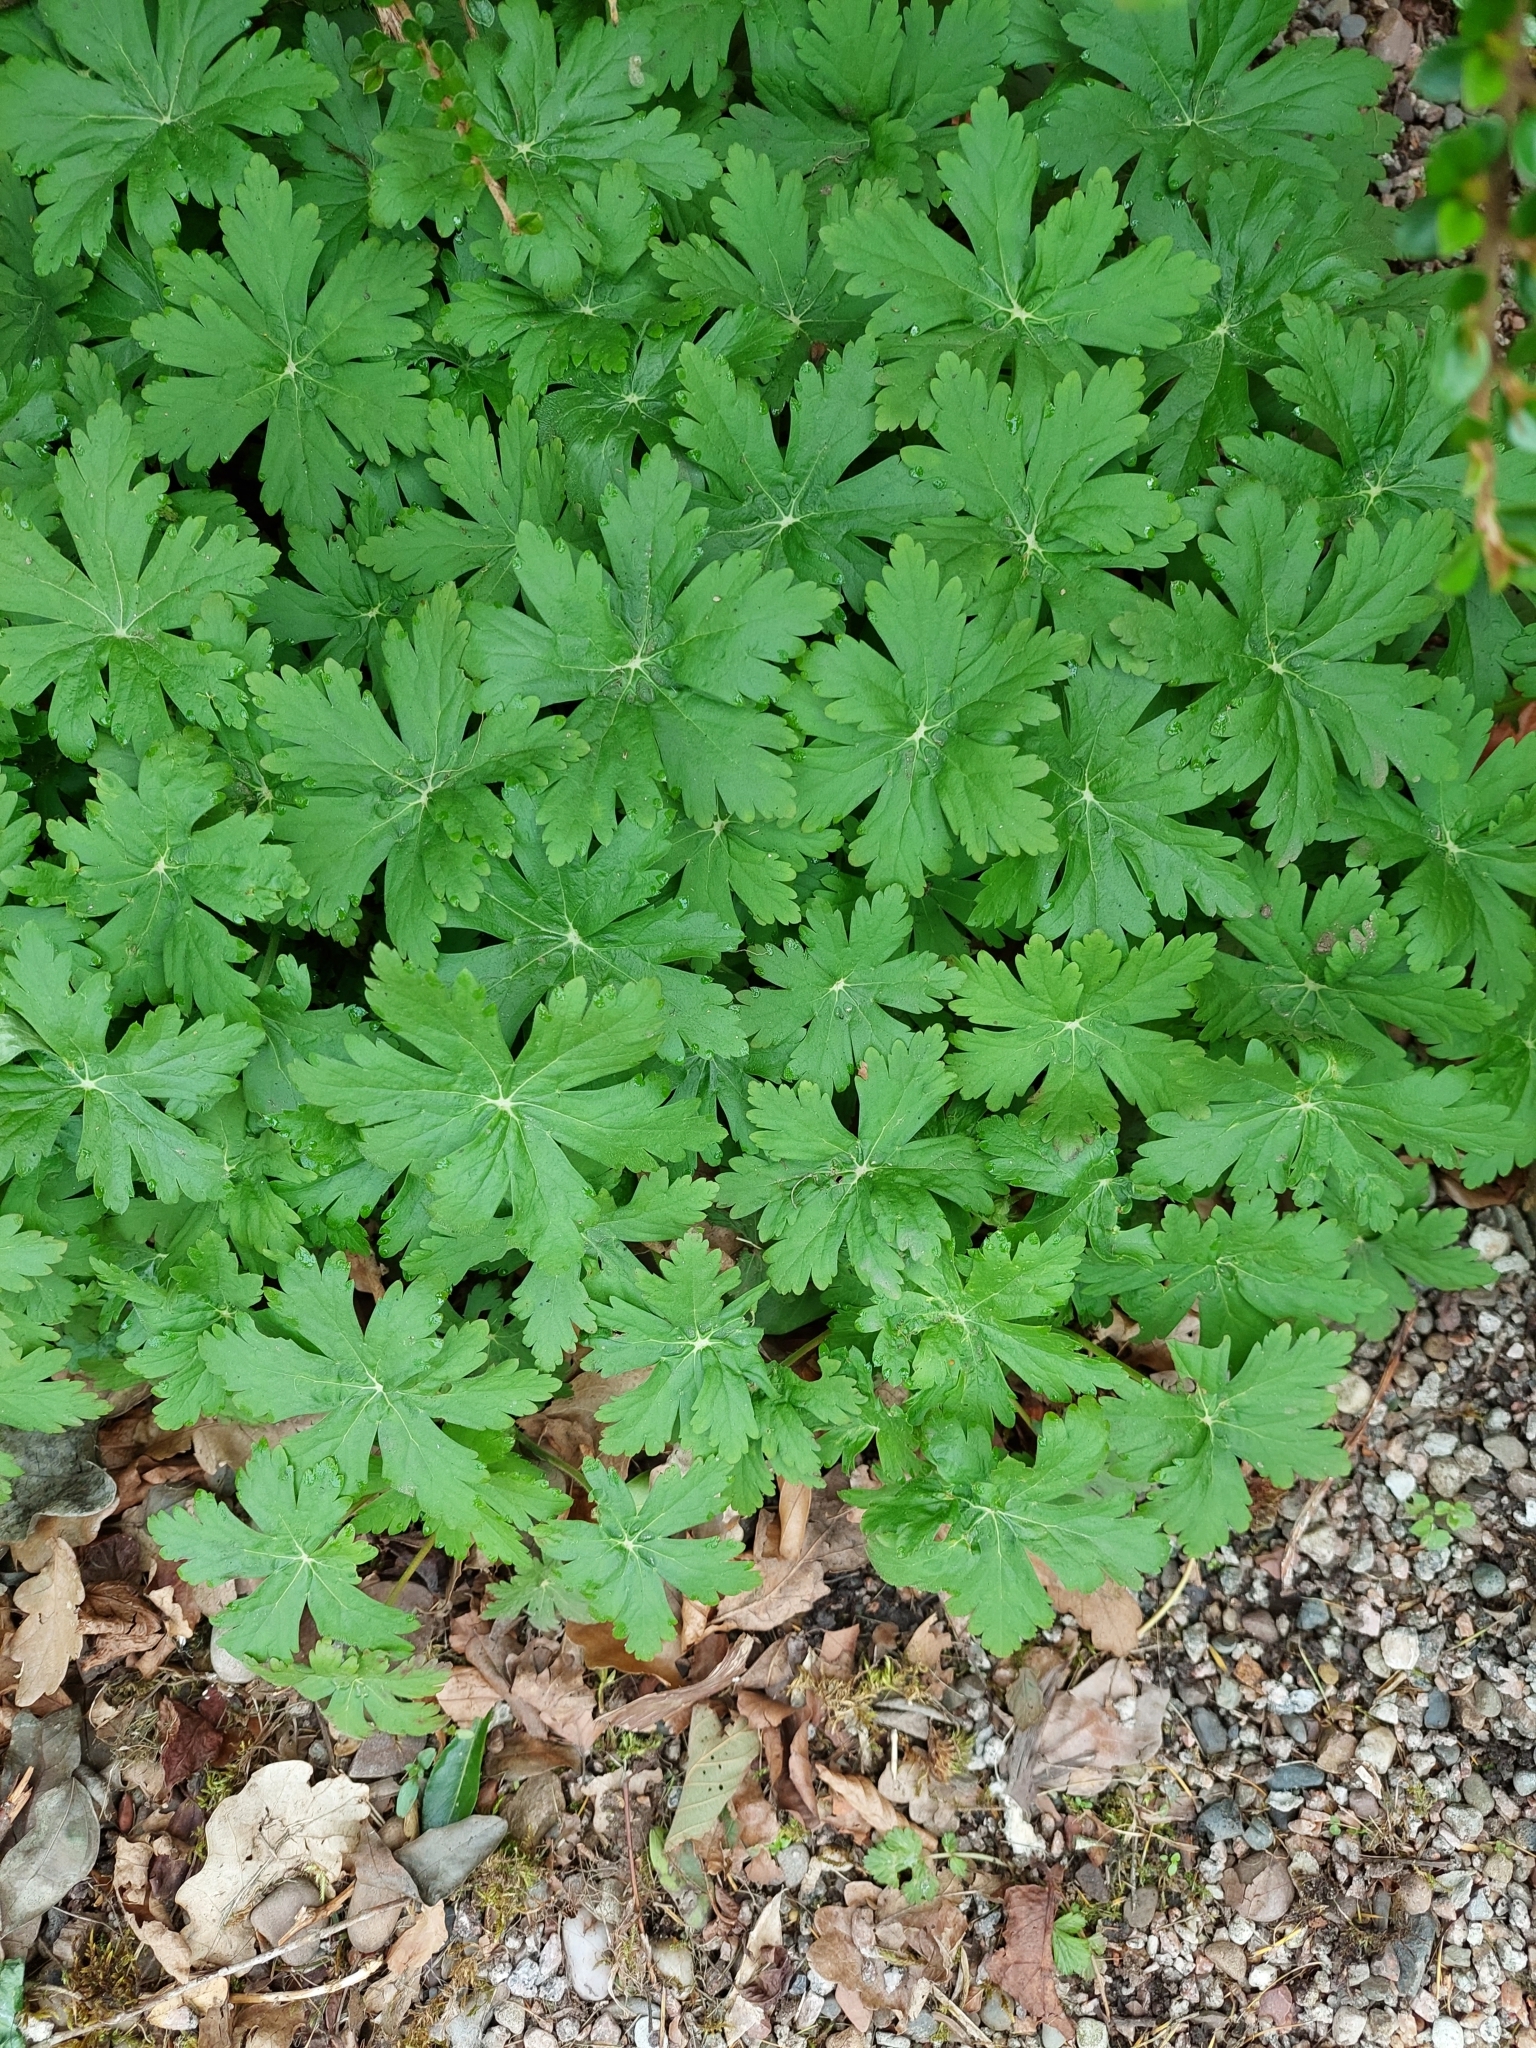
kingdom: Plantae
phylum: Tracheophyta
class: Magnoliopsida
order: Geraniales
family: Geraniaceae
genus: Geranium
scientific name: Geranium macrorrhizum
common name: Rock crane's-bill
